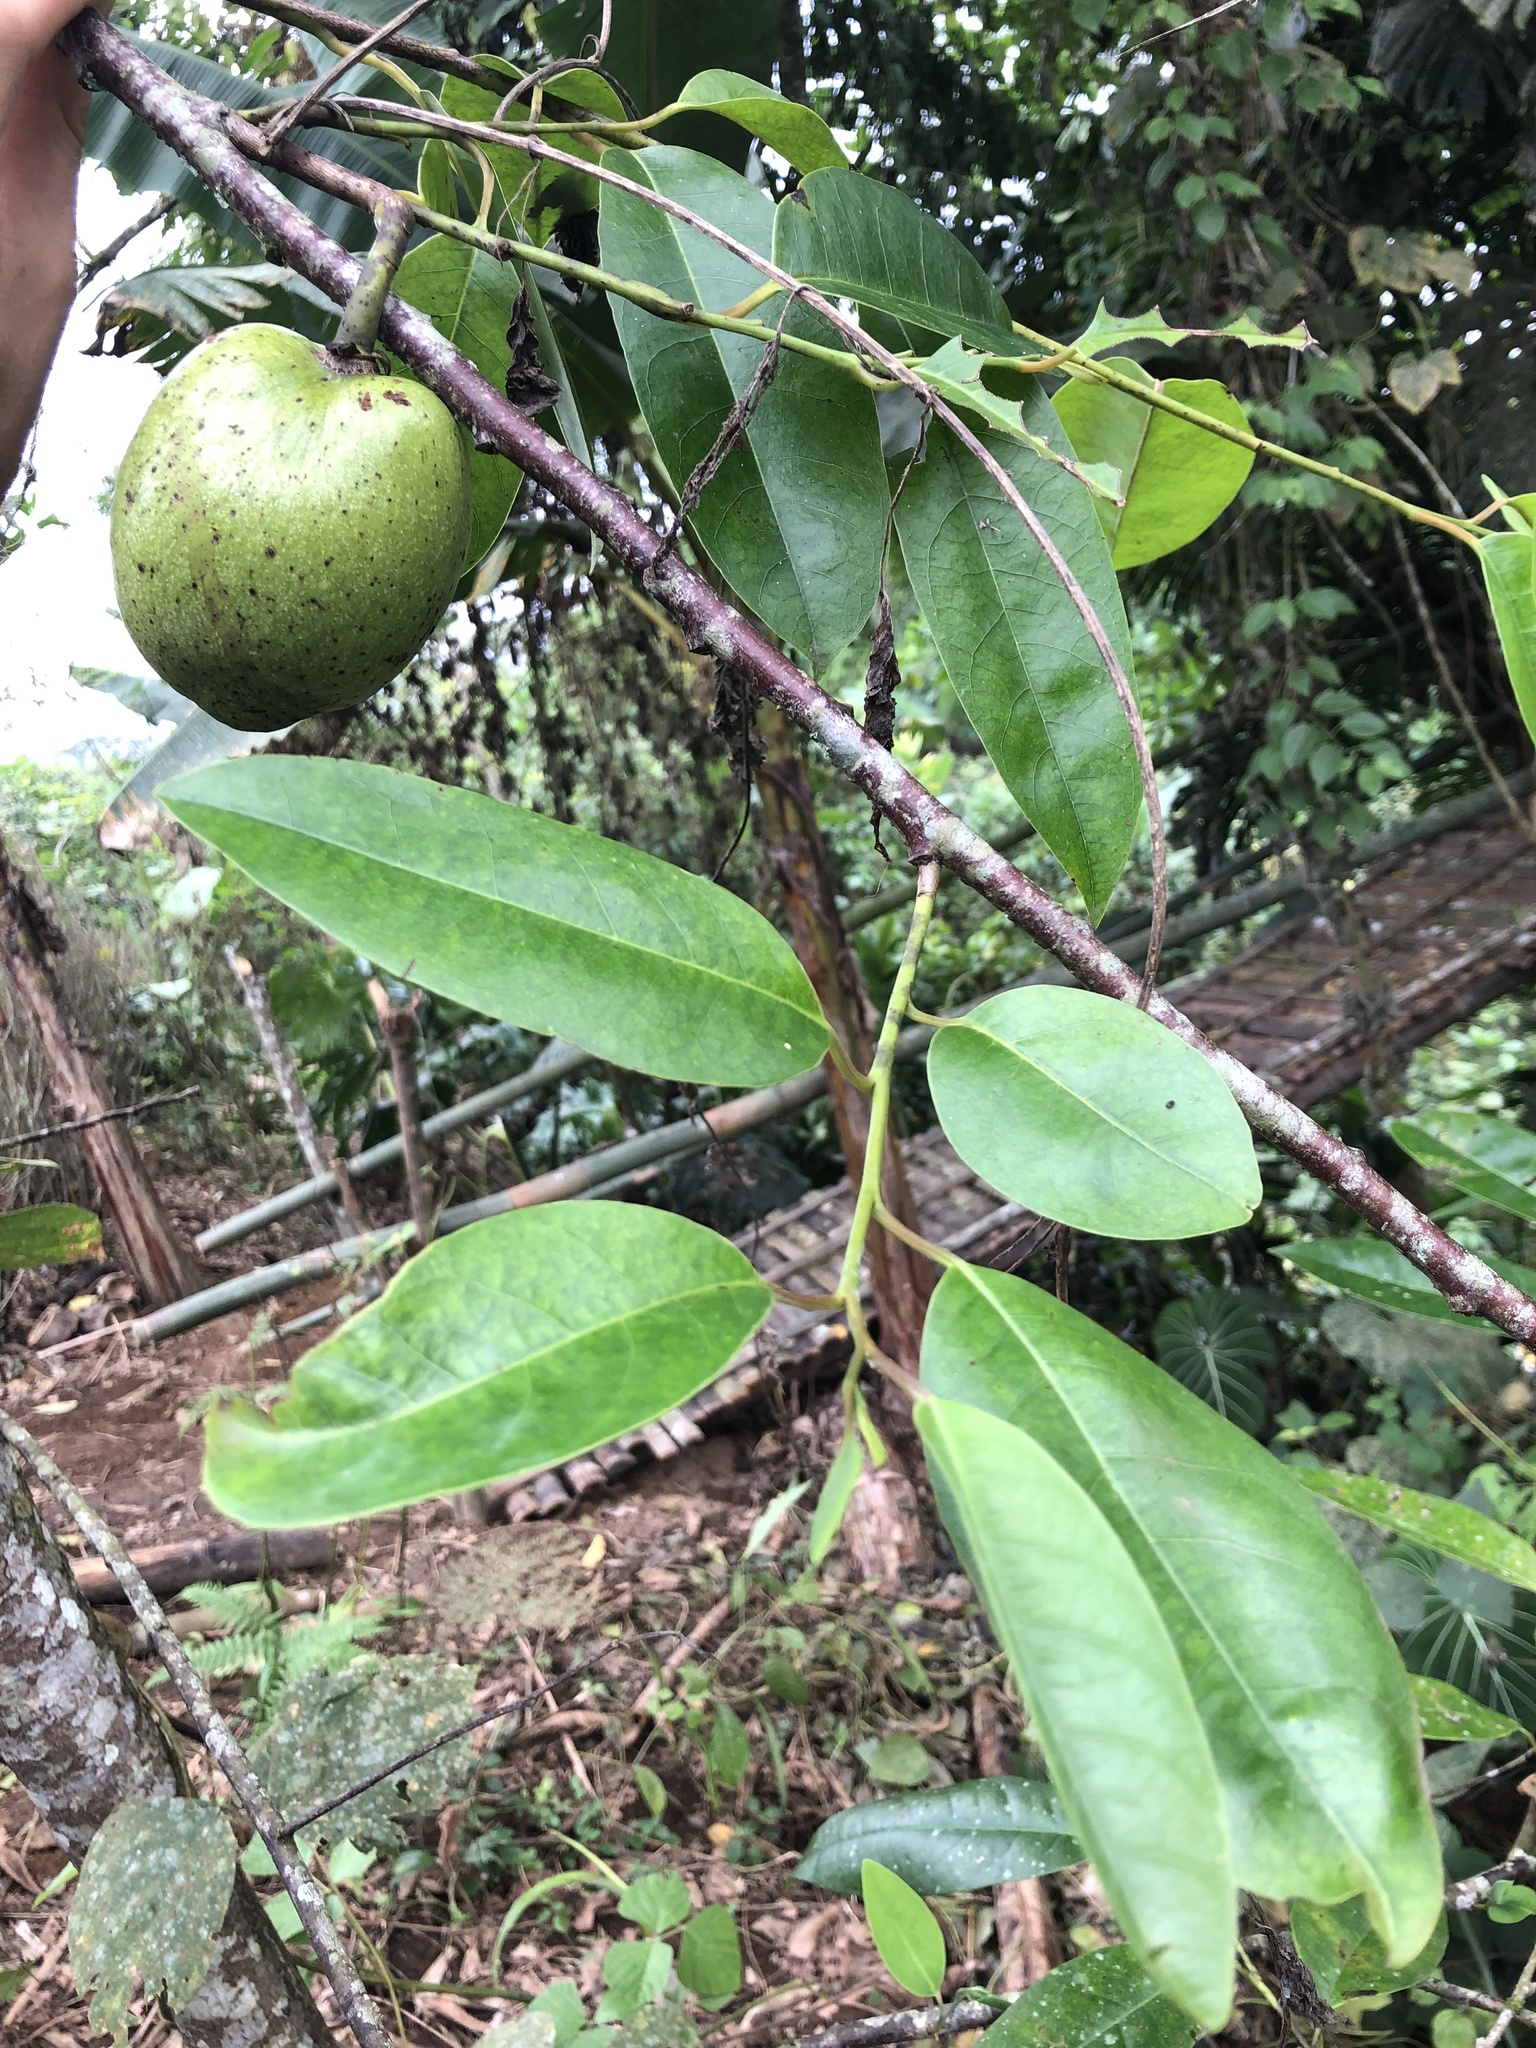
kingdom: Plantae
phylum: Tracheophyta
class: Magnoliopsida
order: Magnoliales
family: Annonaceae
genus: Annona
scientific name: Annona glabra
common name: Monkey apple
